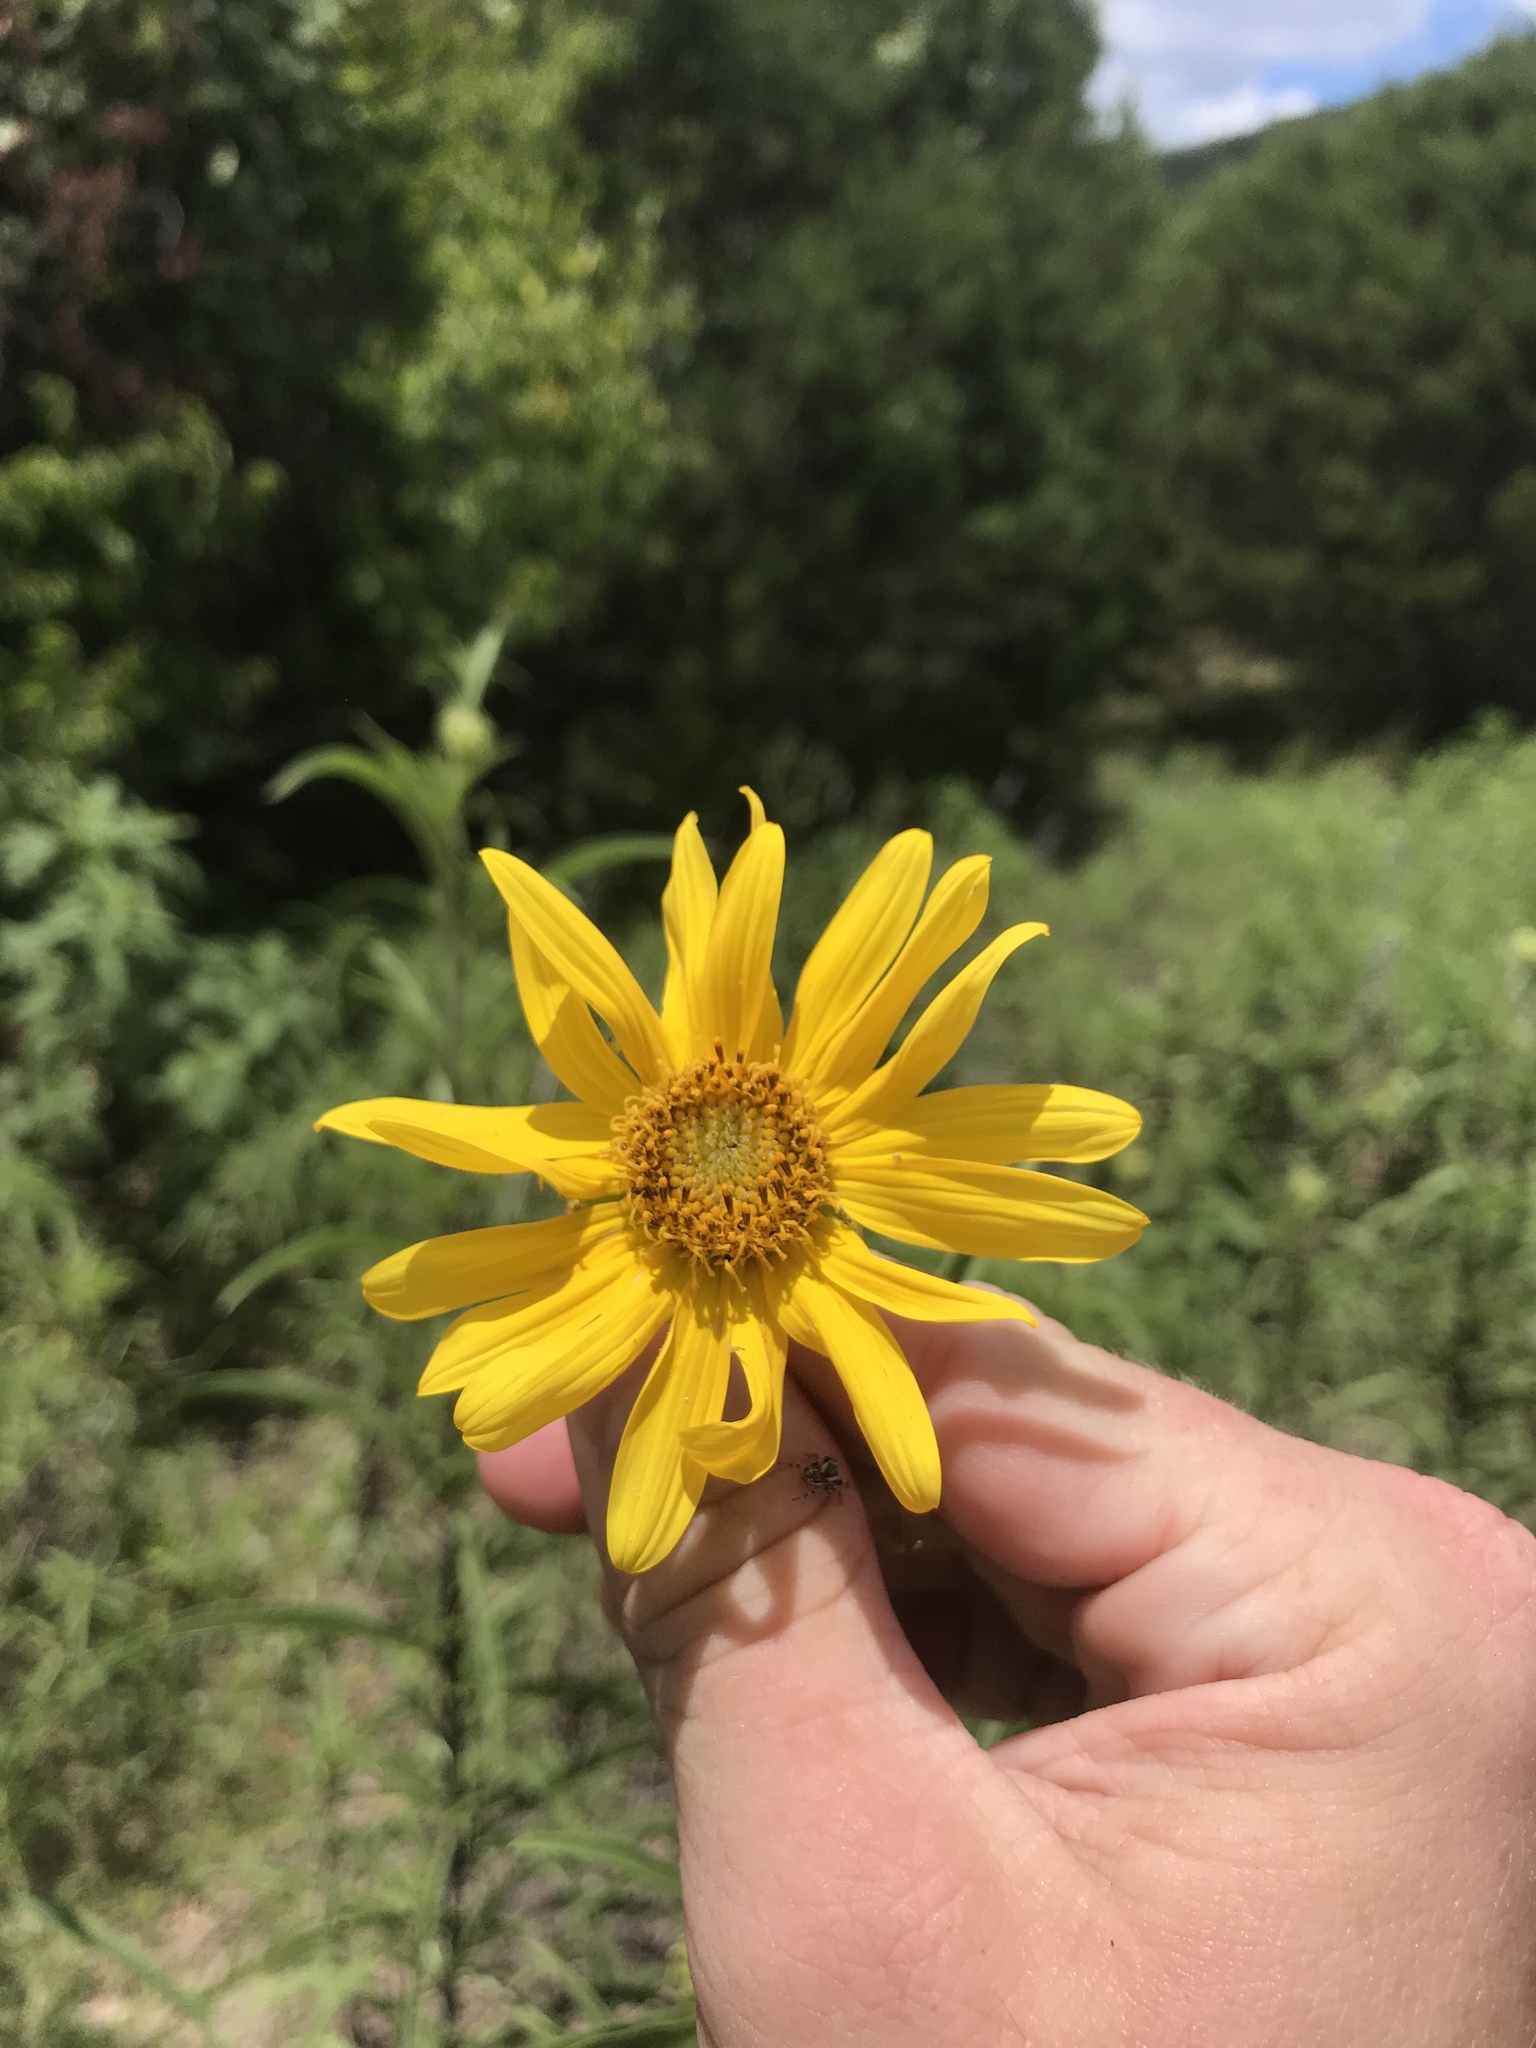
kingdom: Plantae
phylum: Tracheophyta
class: Magnoliopsida
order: Asterales
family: Asteraceae
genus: Helianthus
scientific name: Helianthus maximiliani
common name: Maximilian's sunflower
